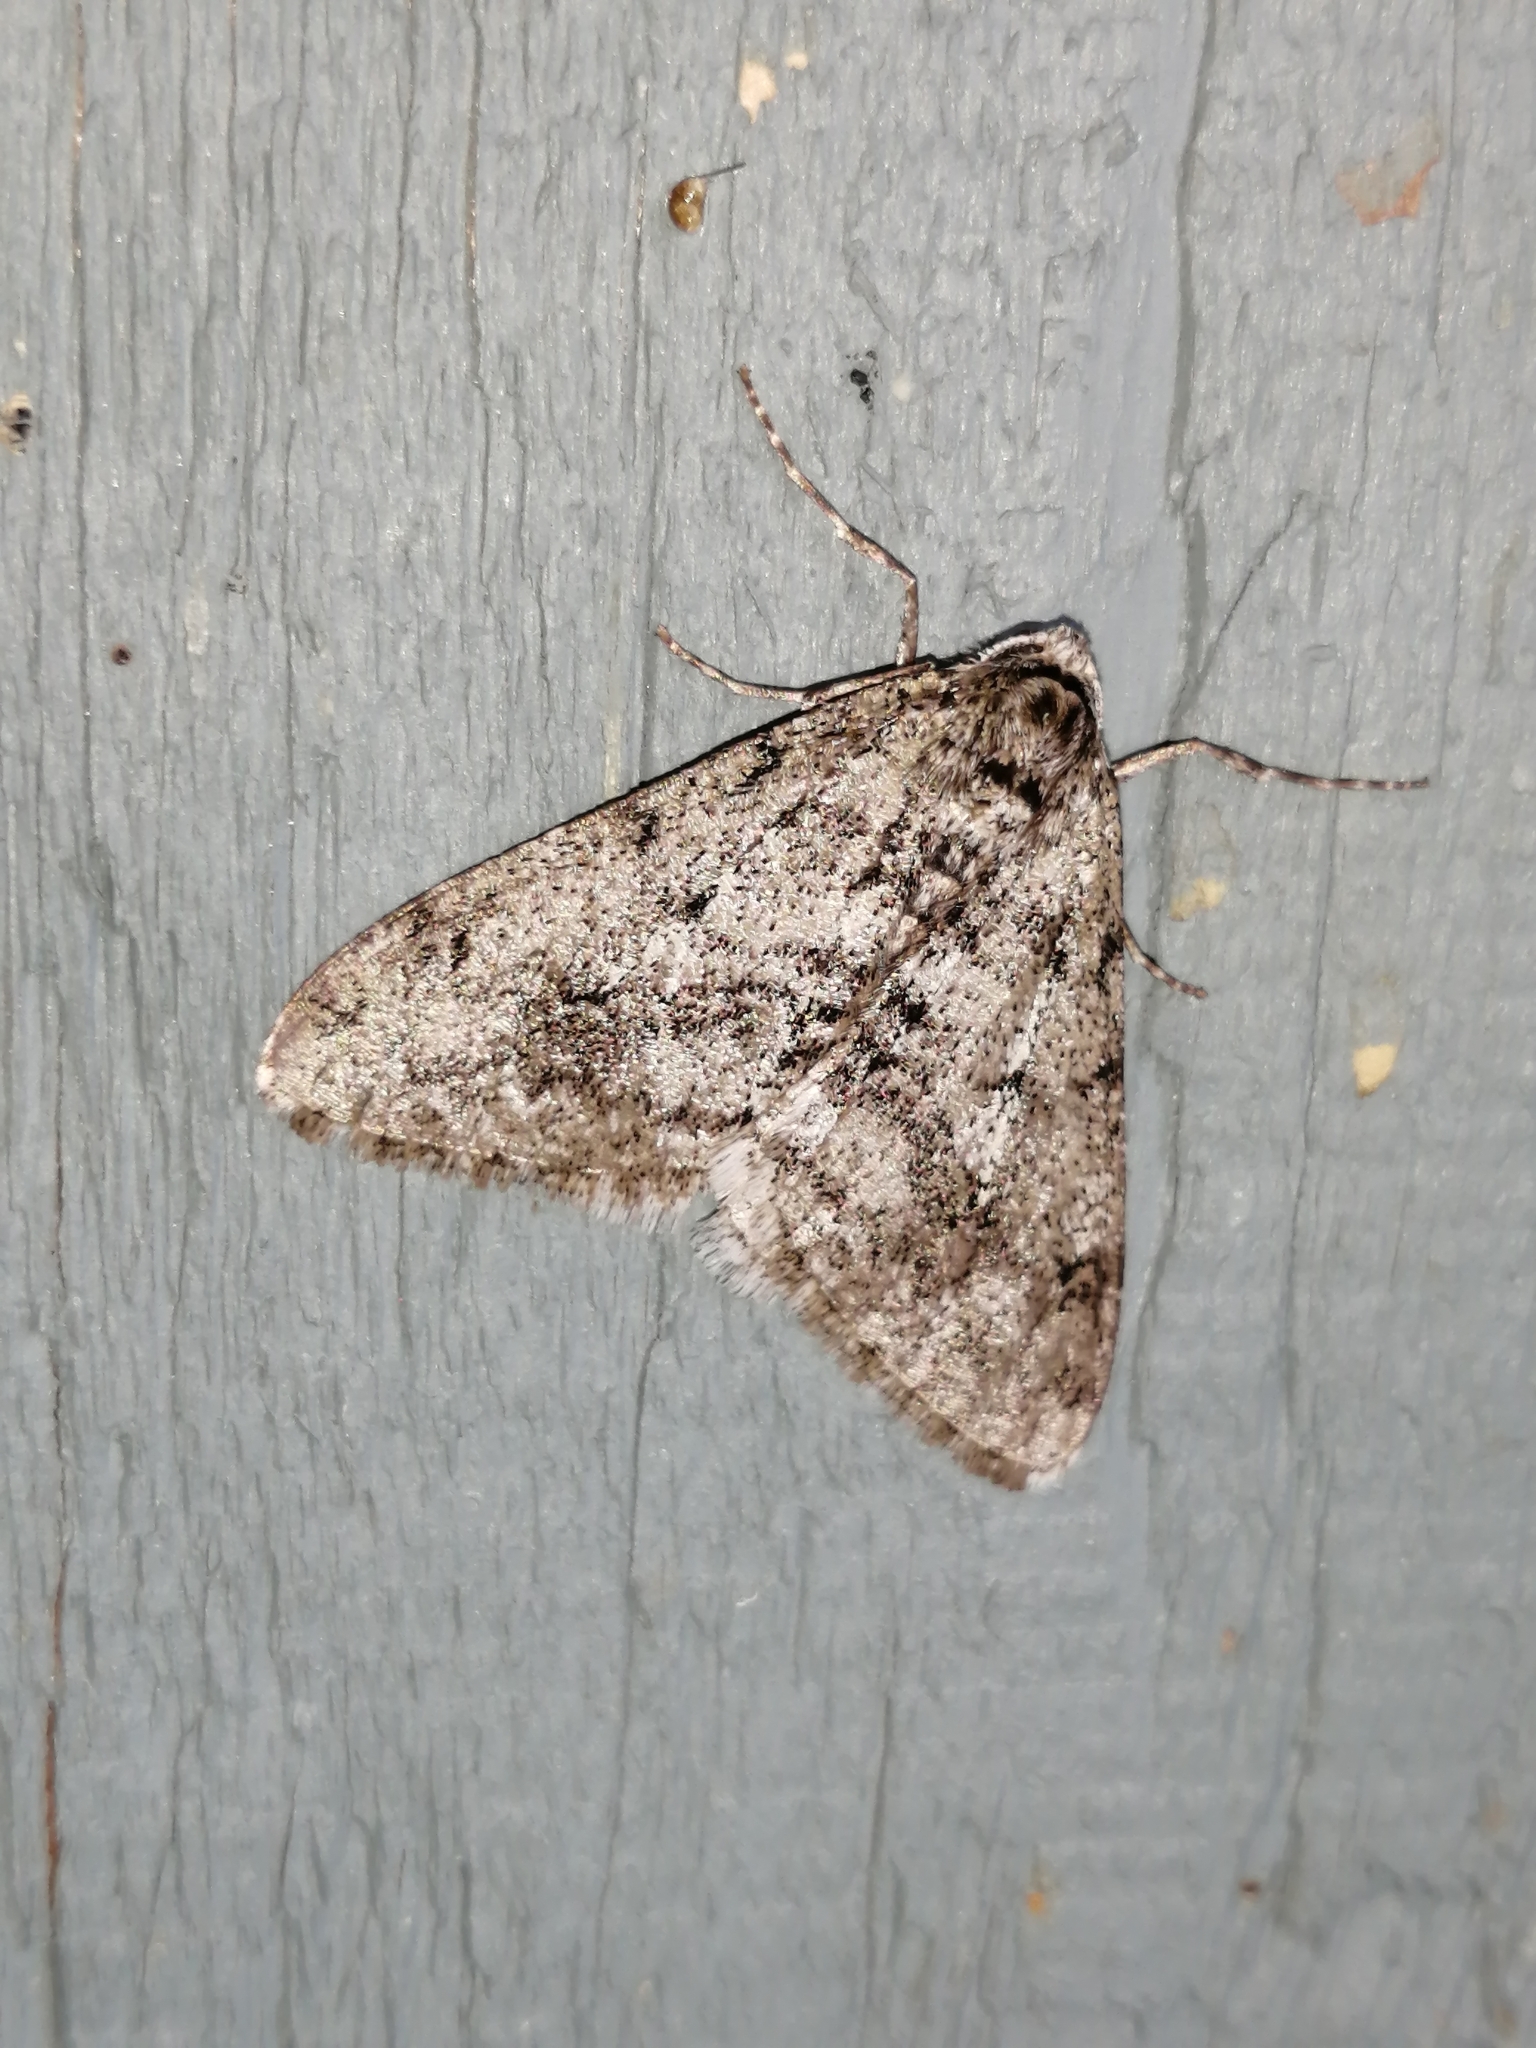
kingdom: Animalia
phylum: Arthropoda
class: Insecta
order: Lepidoptera
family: Geometridae
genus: Phigalia
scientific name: Phigalia strigataria
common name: Small phigalia
